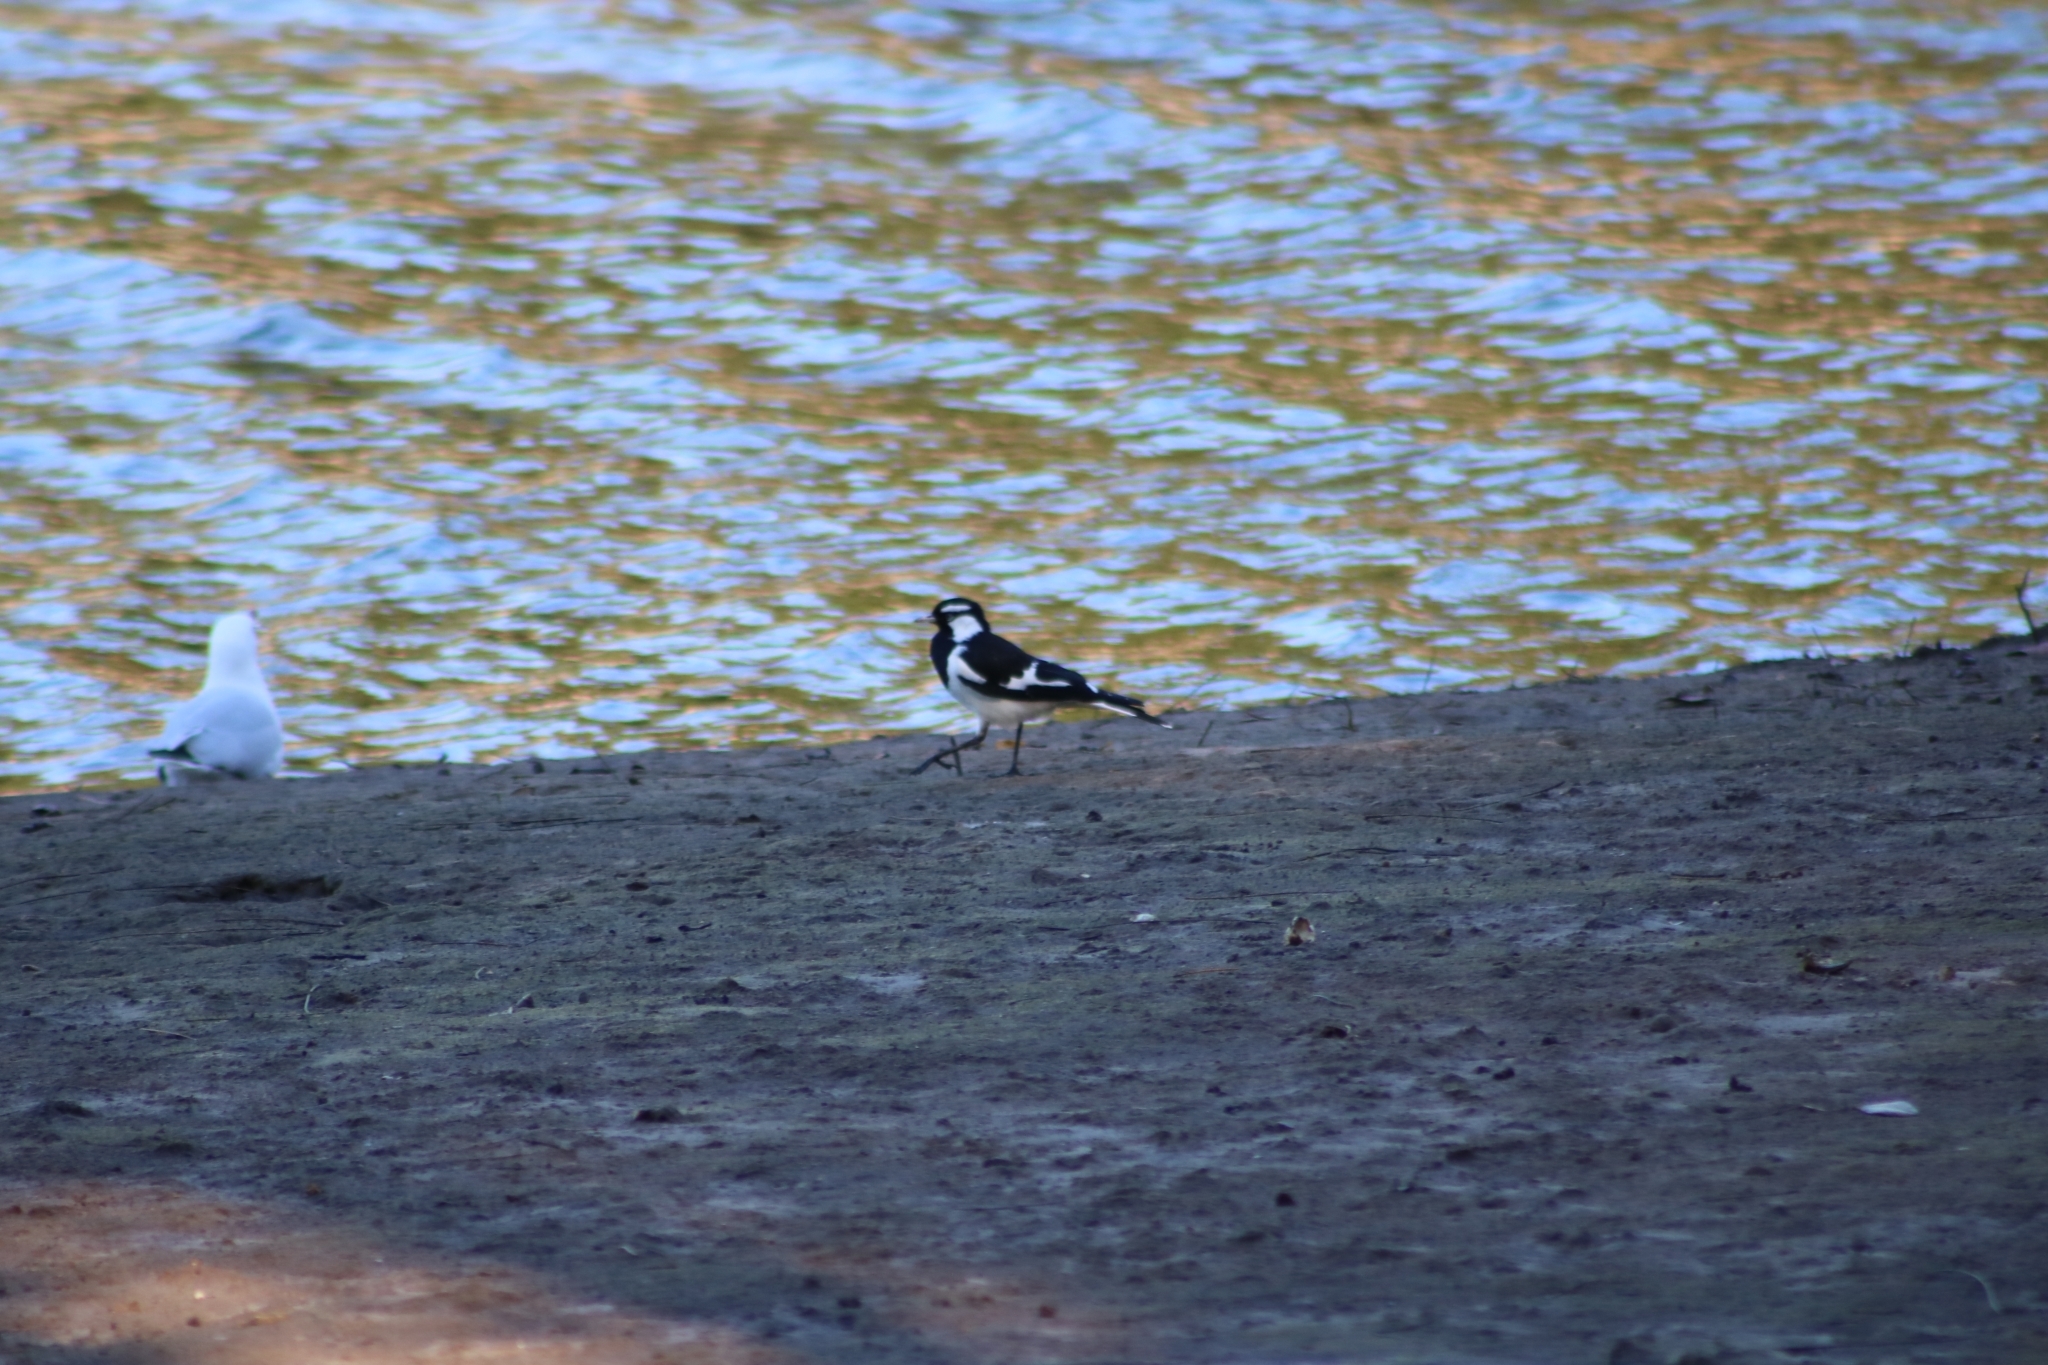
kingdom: Animalia
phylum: Chordata
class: Aves
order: Passeriformes
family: Monarchidae
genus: Grallina
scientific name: Grallina cyanoleuca
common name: Magpie-lark
